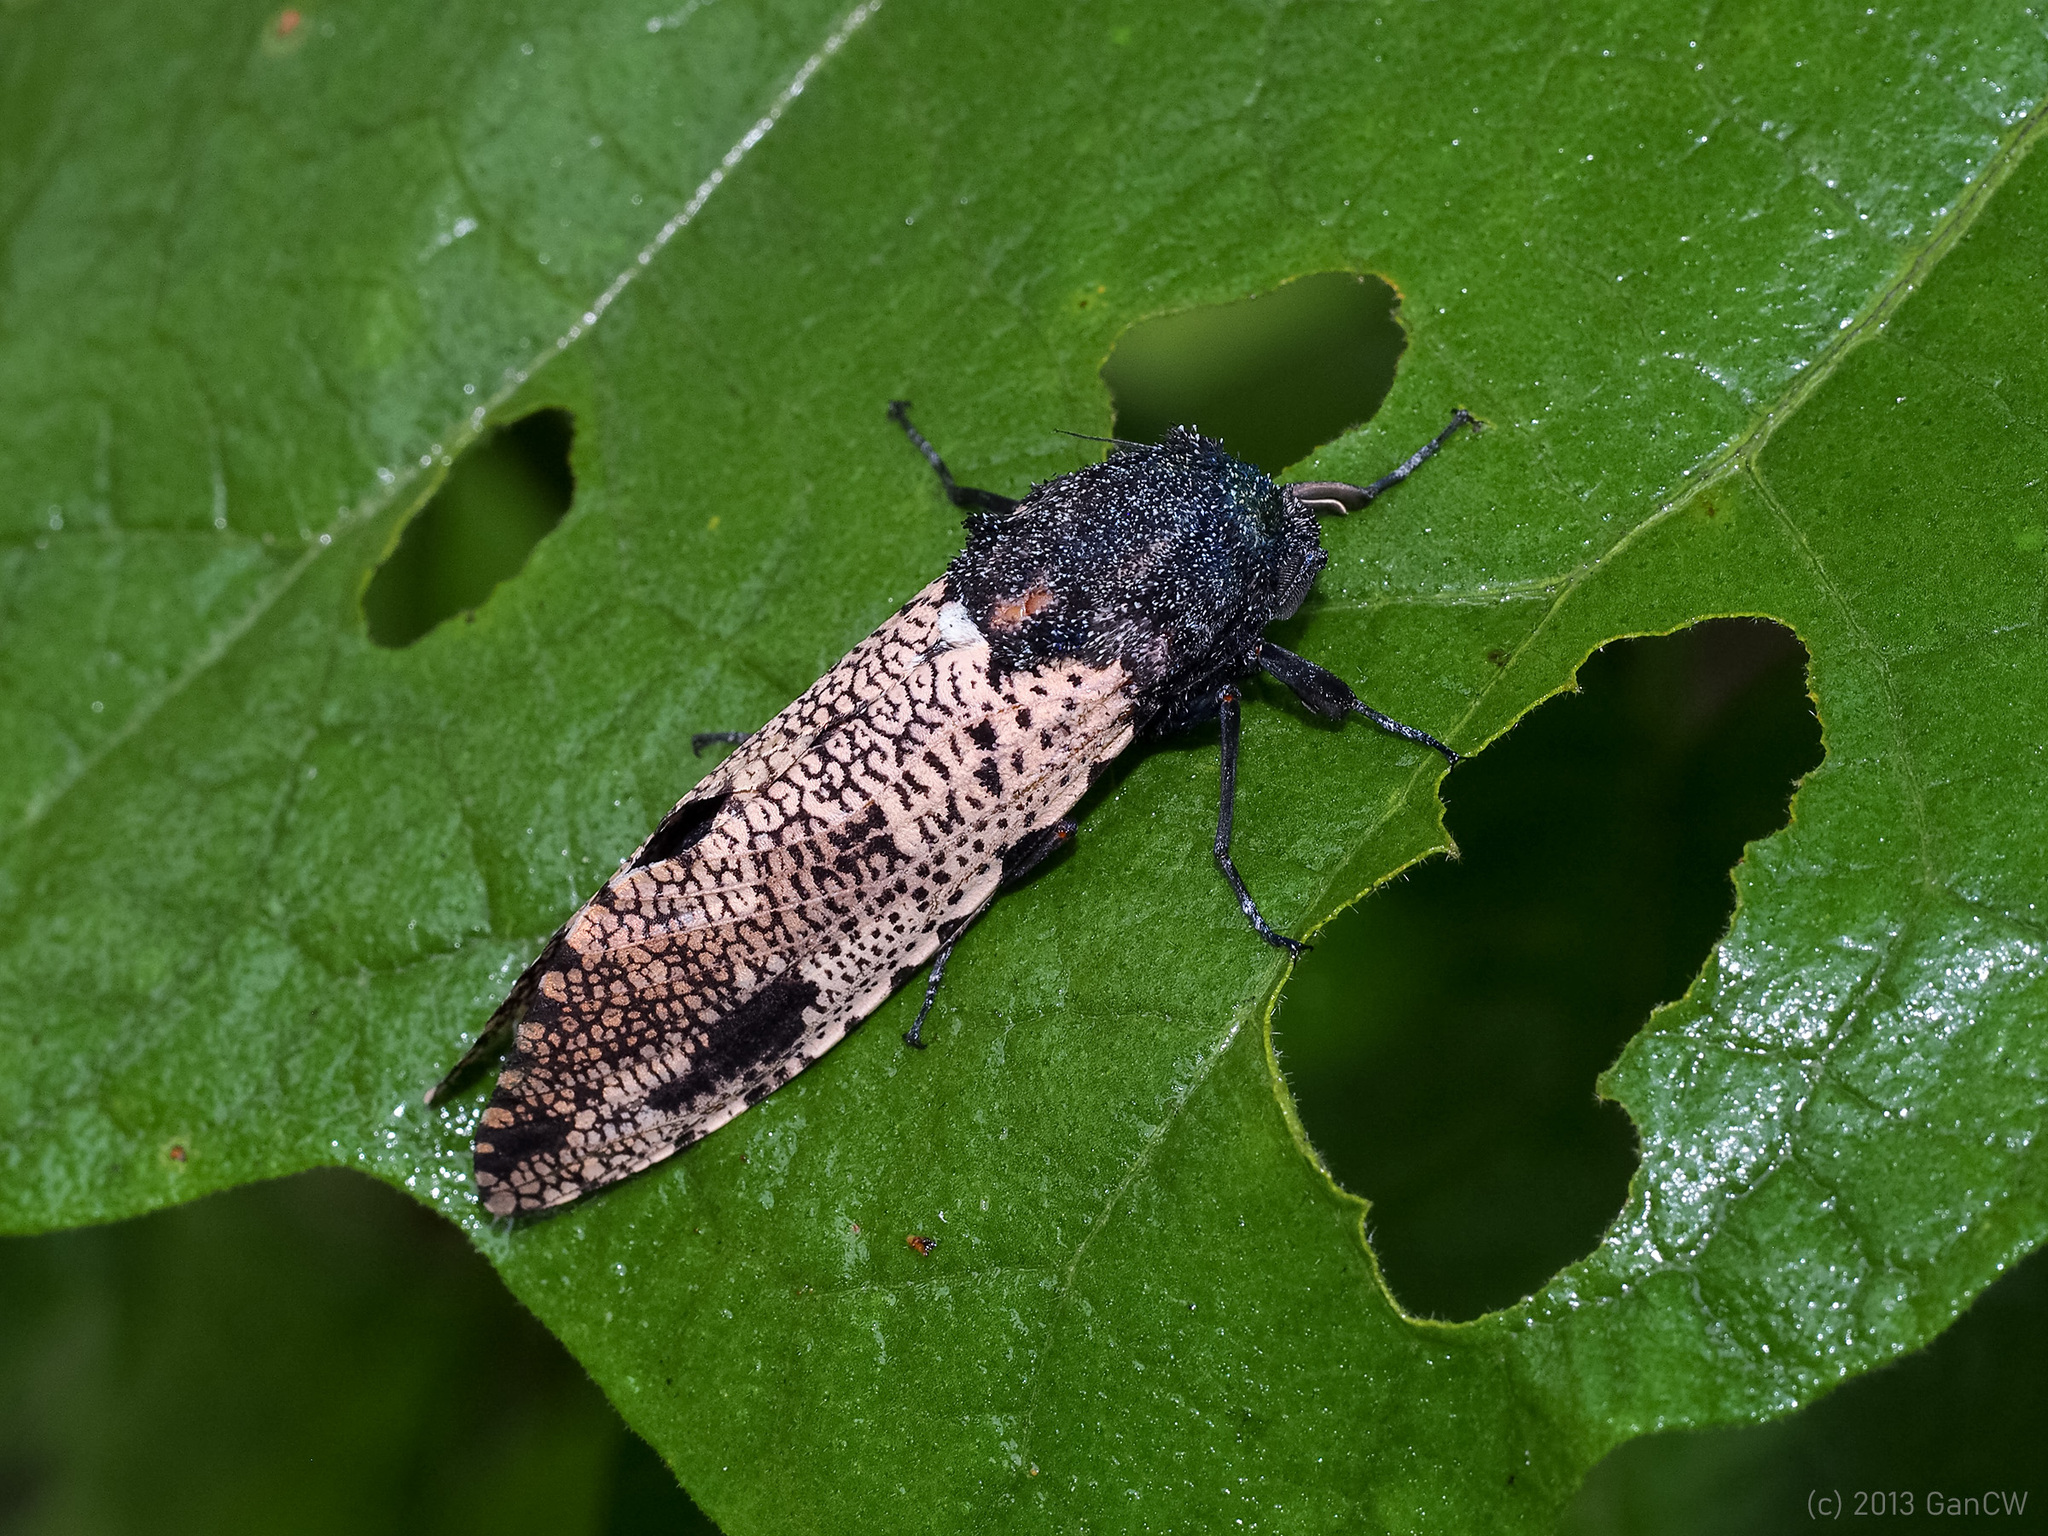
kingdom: Animalia
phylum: Arthropoda
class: Insecta
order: Lepidoptera
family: Cossidae
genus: Xyleutes
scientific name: Xyleutes strix
